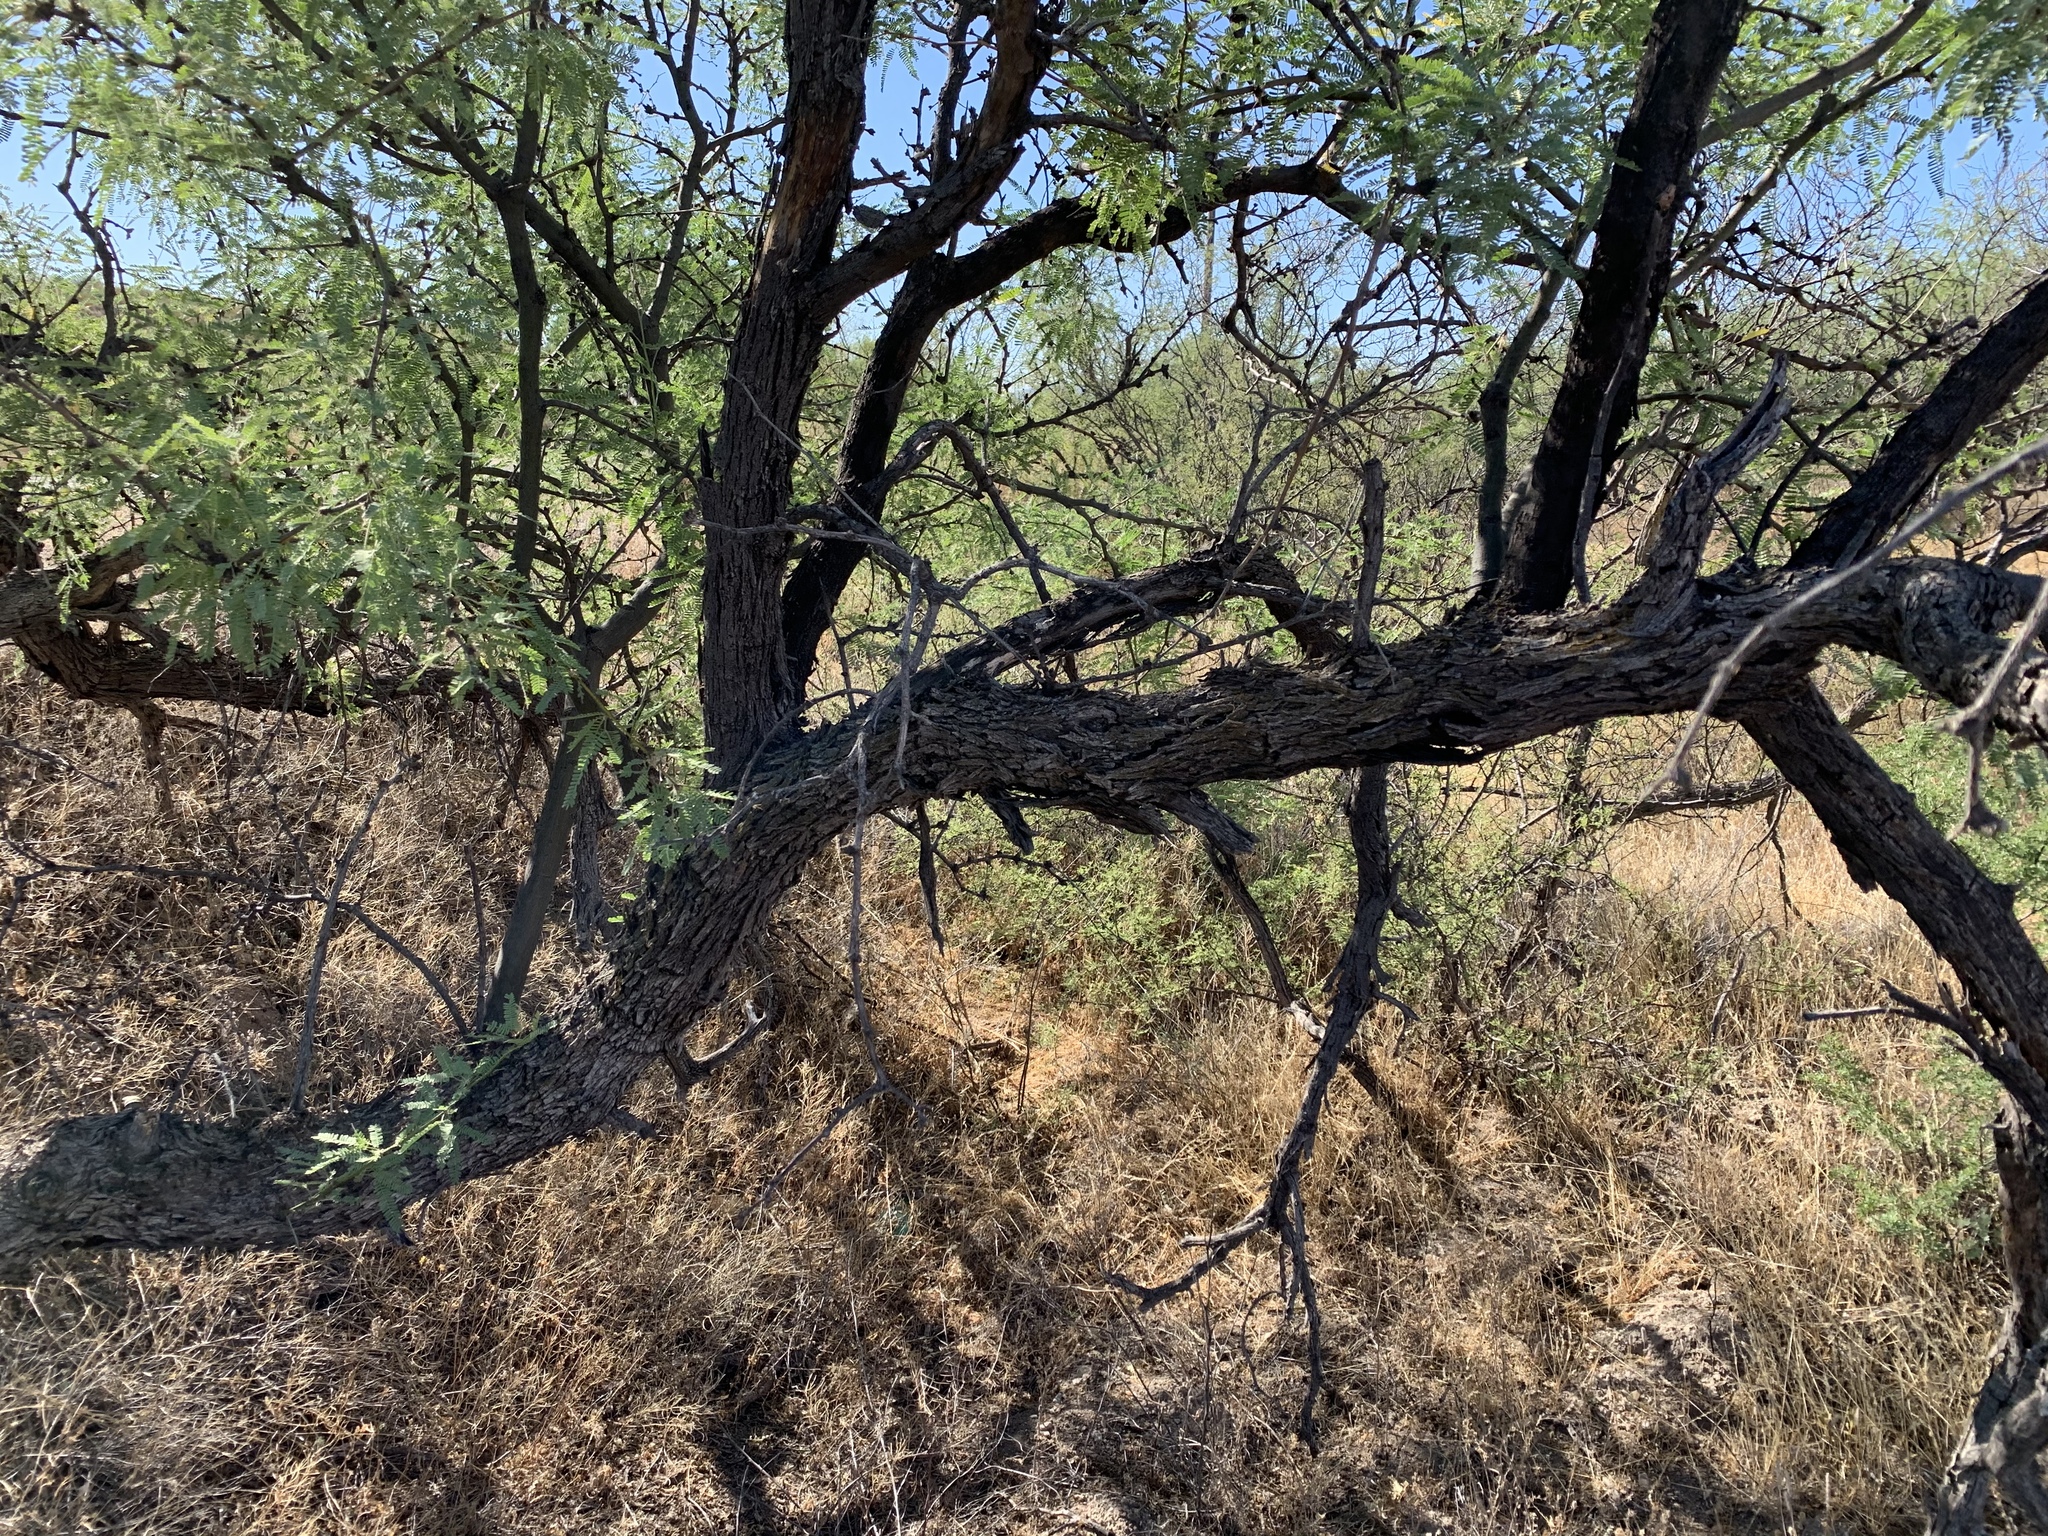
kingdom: Plantae
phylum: Tracheophyta
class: Magnoliopsida
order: Fabales
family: Fabaceae
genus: Prosopis
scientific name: Prosopis velutina
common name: Velvet mesquite
